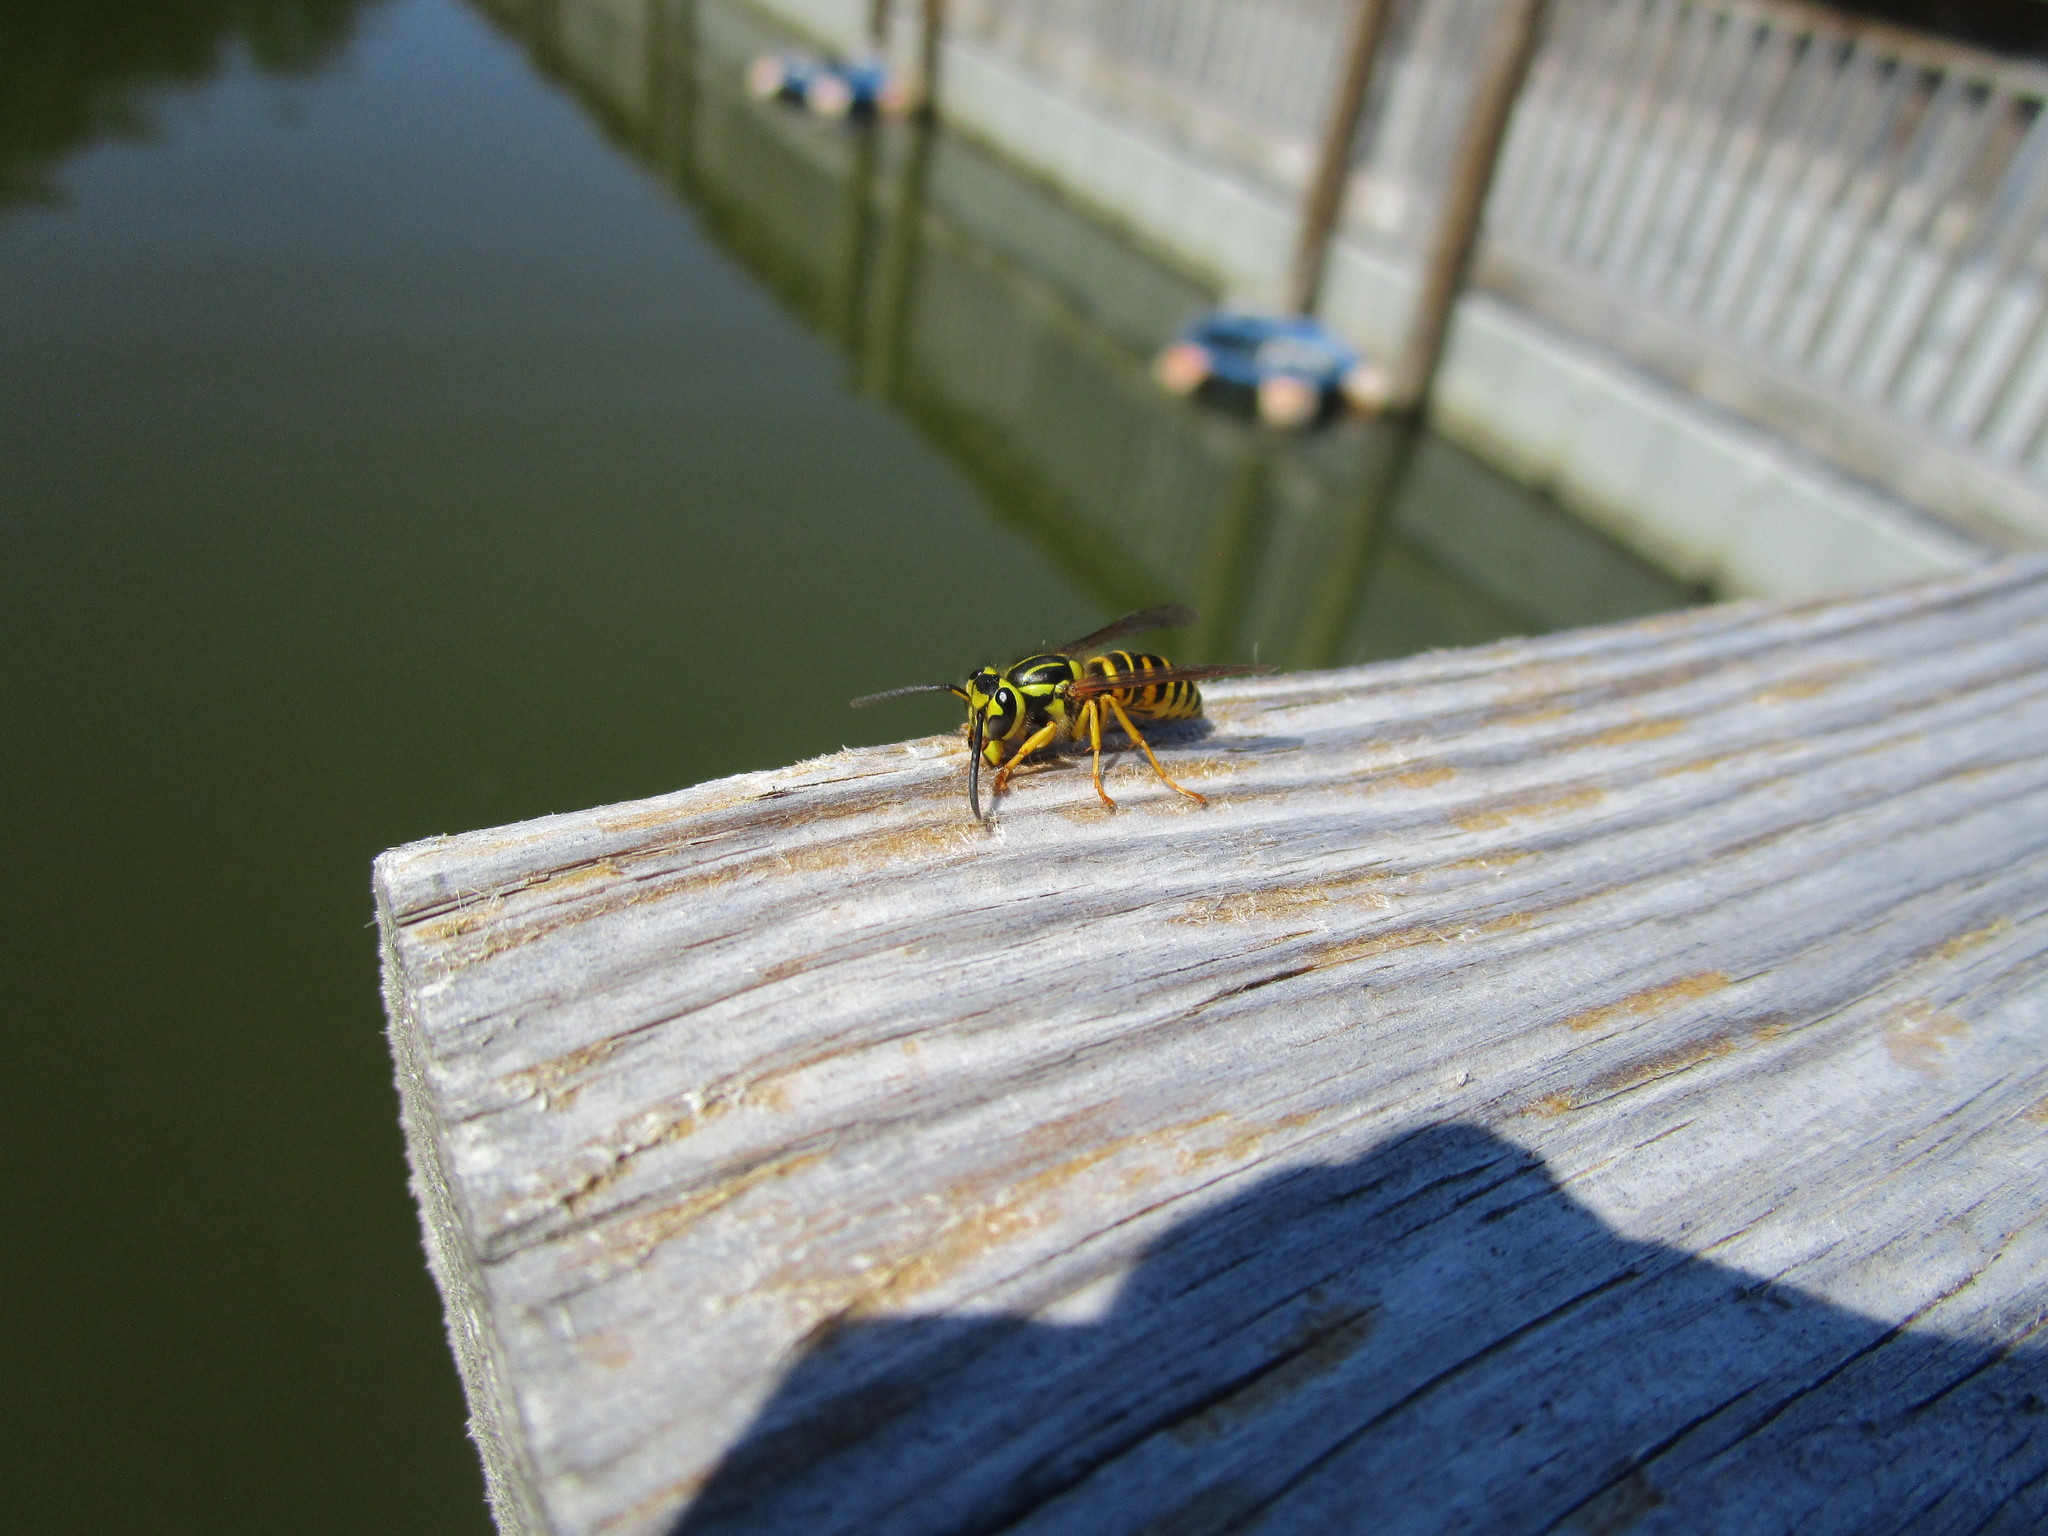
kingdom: Animalia
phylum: Arthropoda
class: Insecta
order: Hymenoptera
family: Vespidae
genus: Vespula
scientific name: Vespula squamosa
